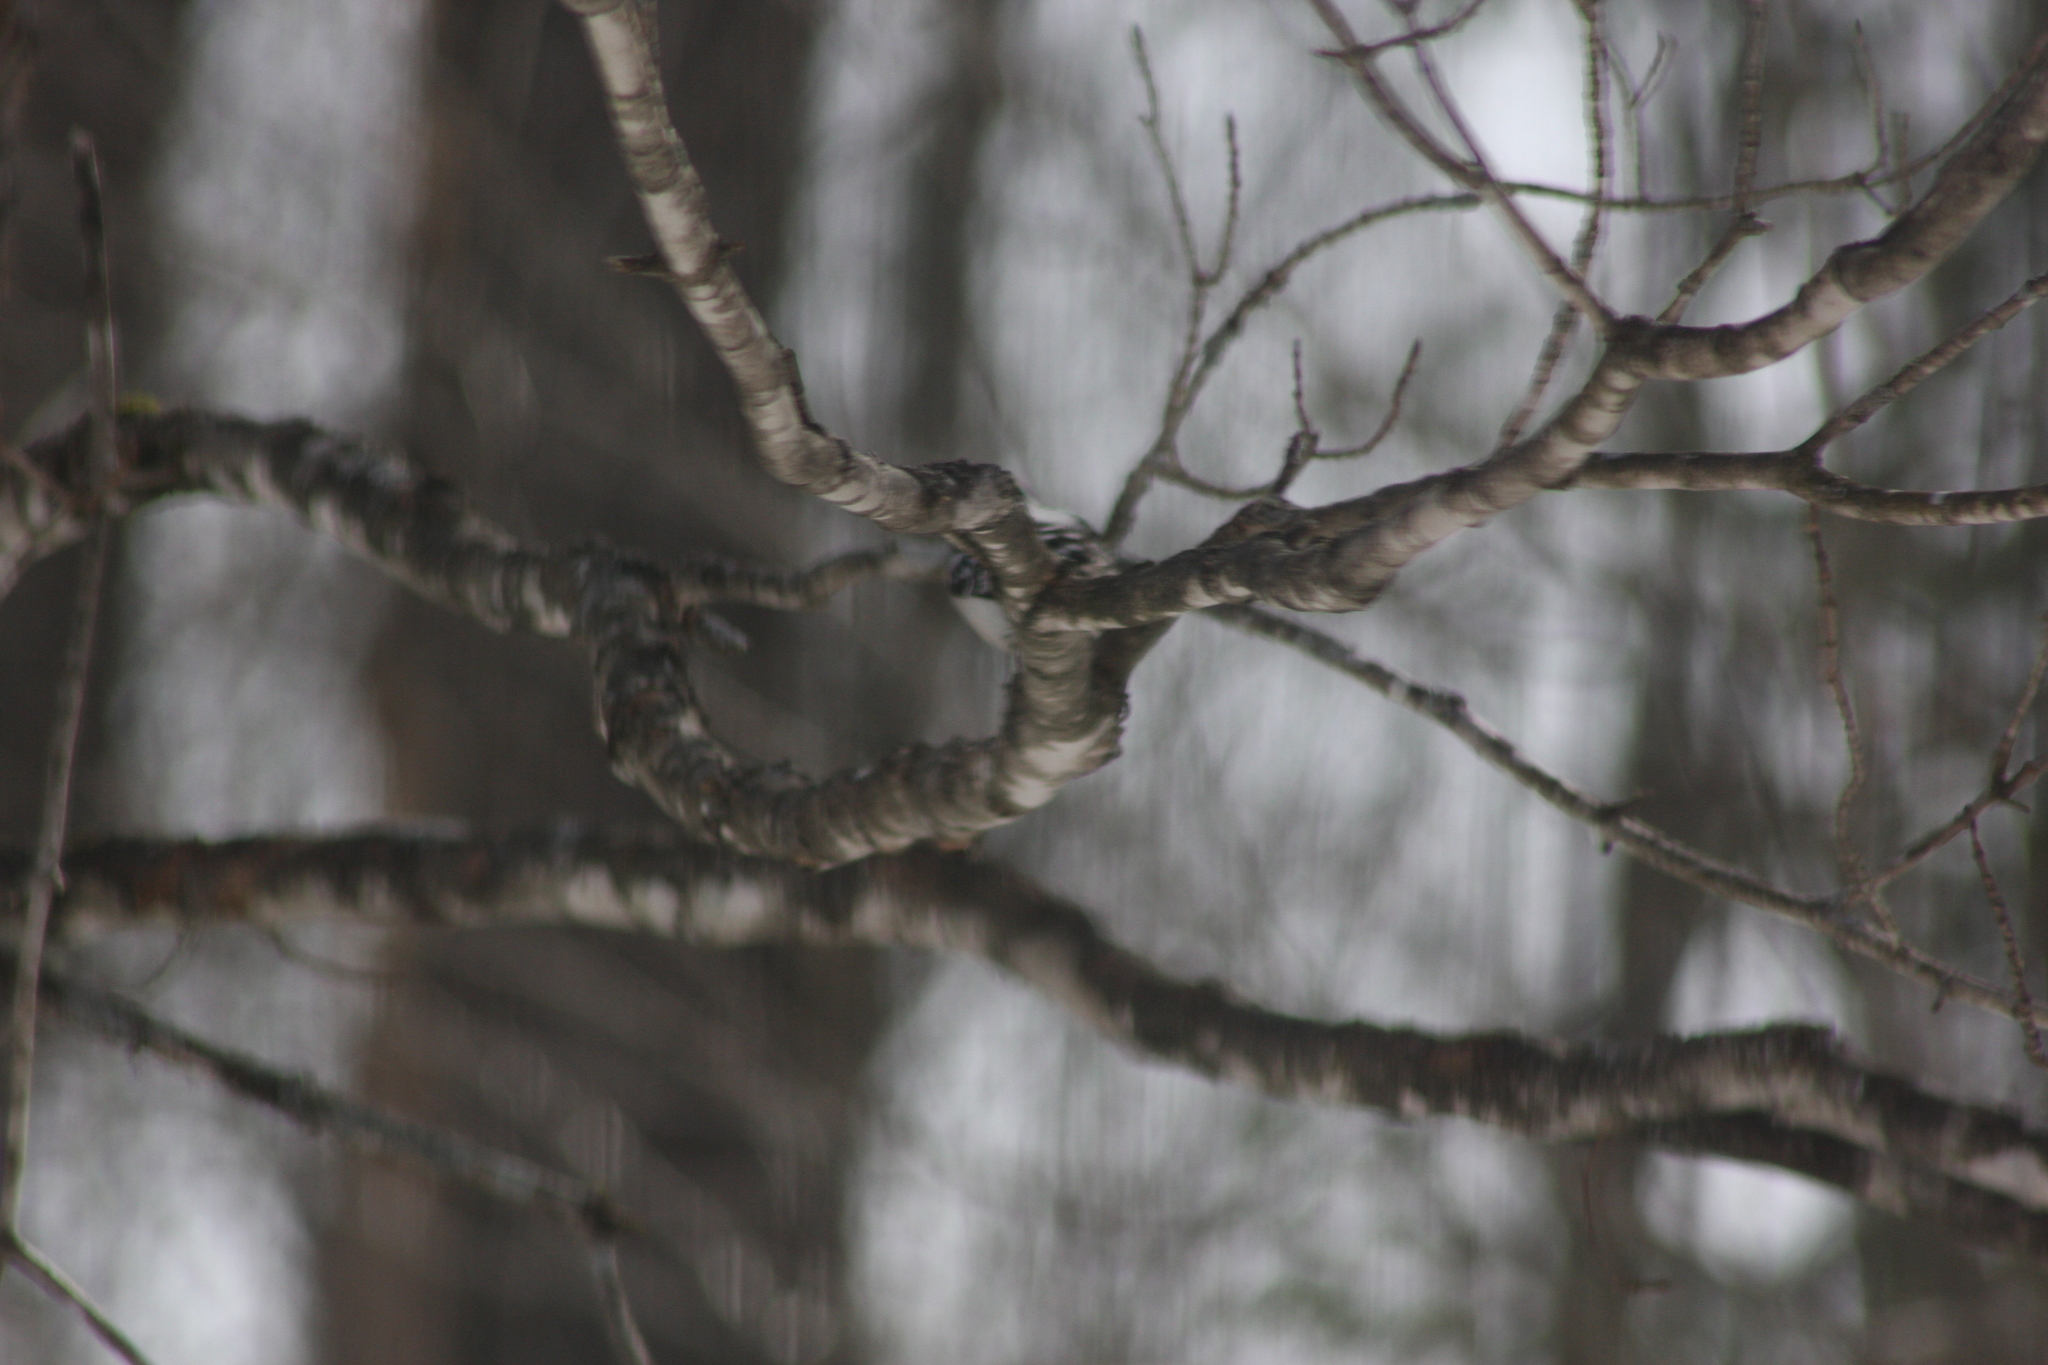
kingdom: Animalia
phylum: Chordata
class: Aves
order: Piciformes
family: Picidae
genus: Dryobates
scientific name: Dryobates pubescens
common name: Downy woodpecker
